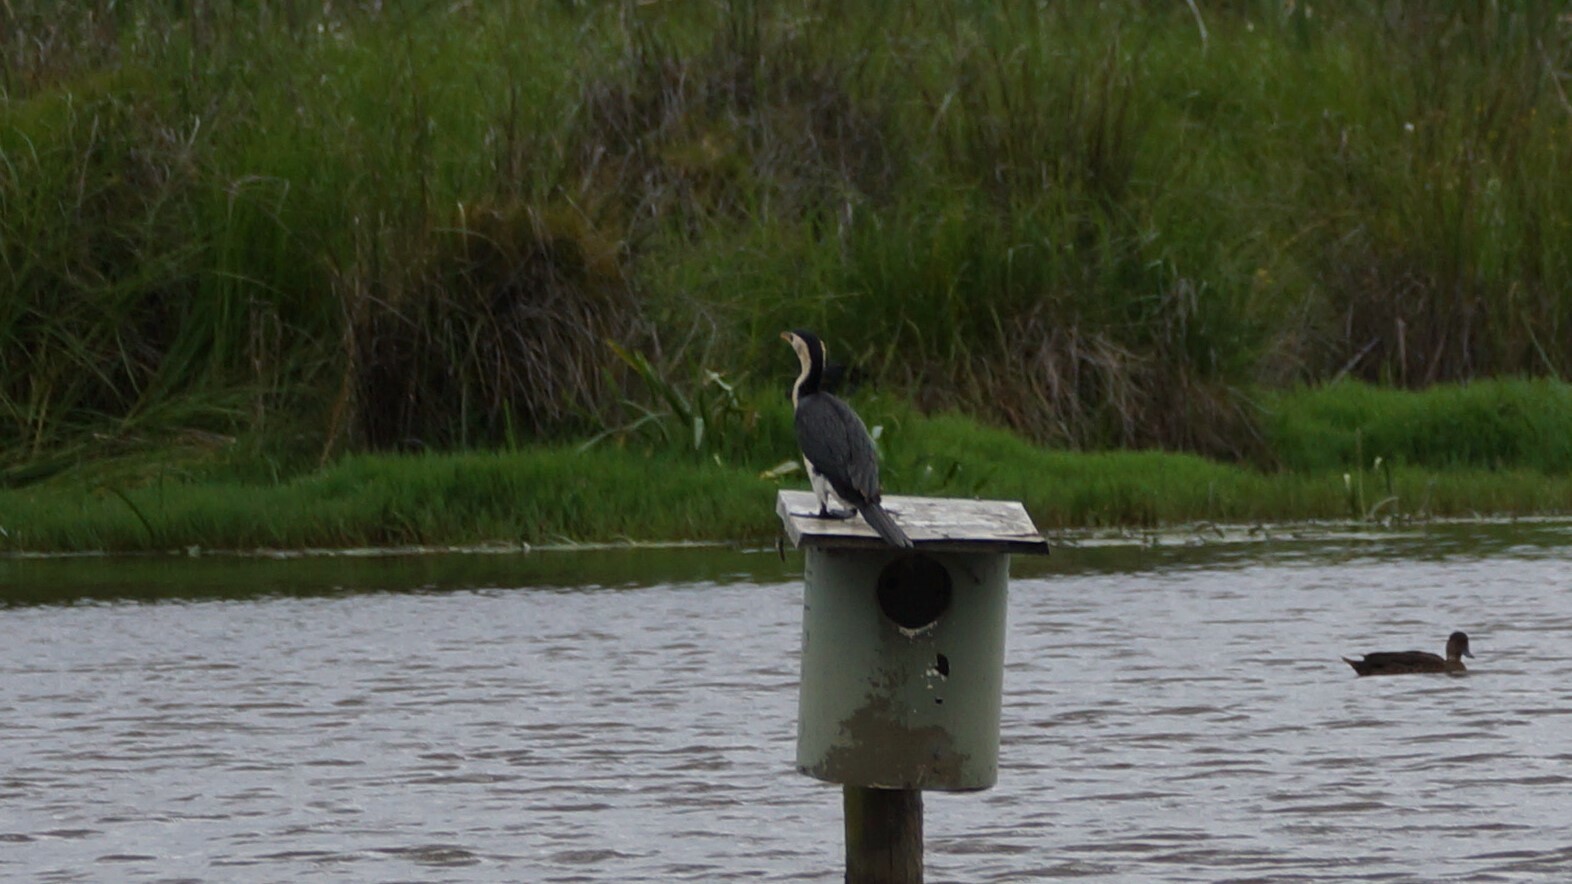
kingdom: Animalia
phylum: Chordata
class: Aves
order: Suliformes
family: Phalacrocoracidae
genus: Microcarbo
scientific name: Microcarbo melanoleucos
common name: Little pied cormorant
